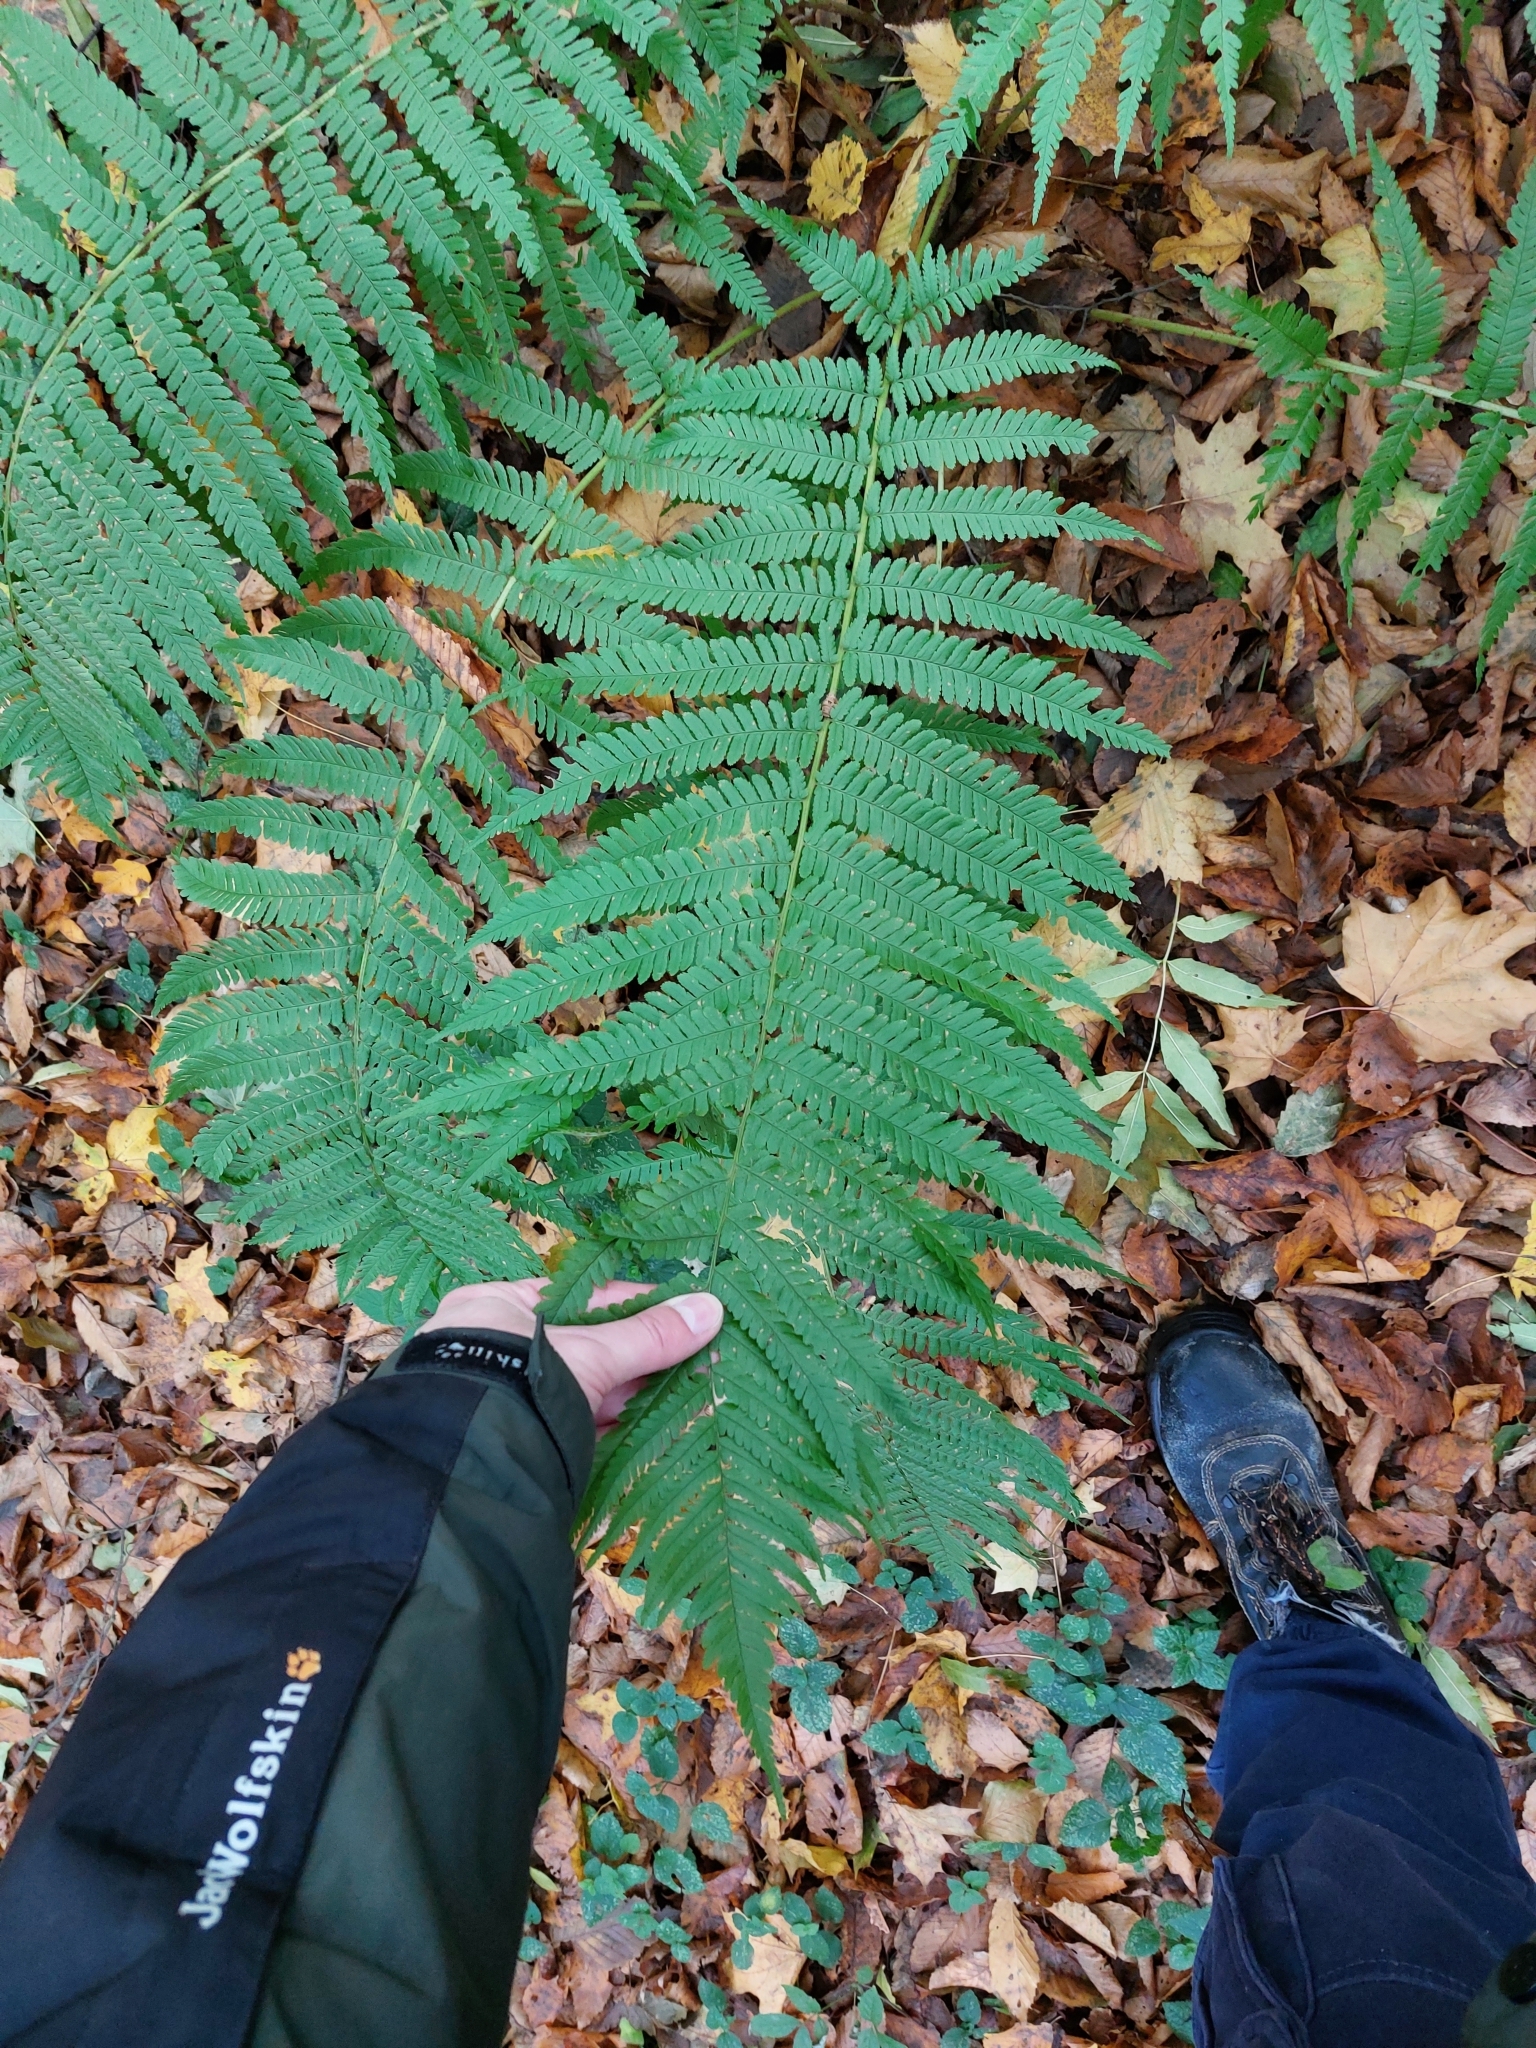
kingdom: Plantae
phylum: Tracheophyta
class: Polypodiopsida
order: Polypodiales
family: Dryopteridaceae
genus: Dryopteris
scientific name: Dryopteris filix-mas
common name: Male fern
